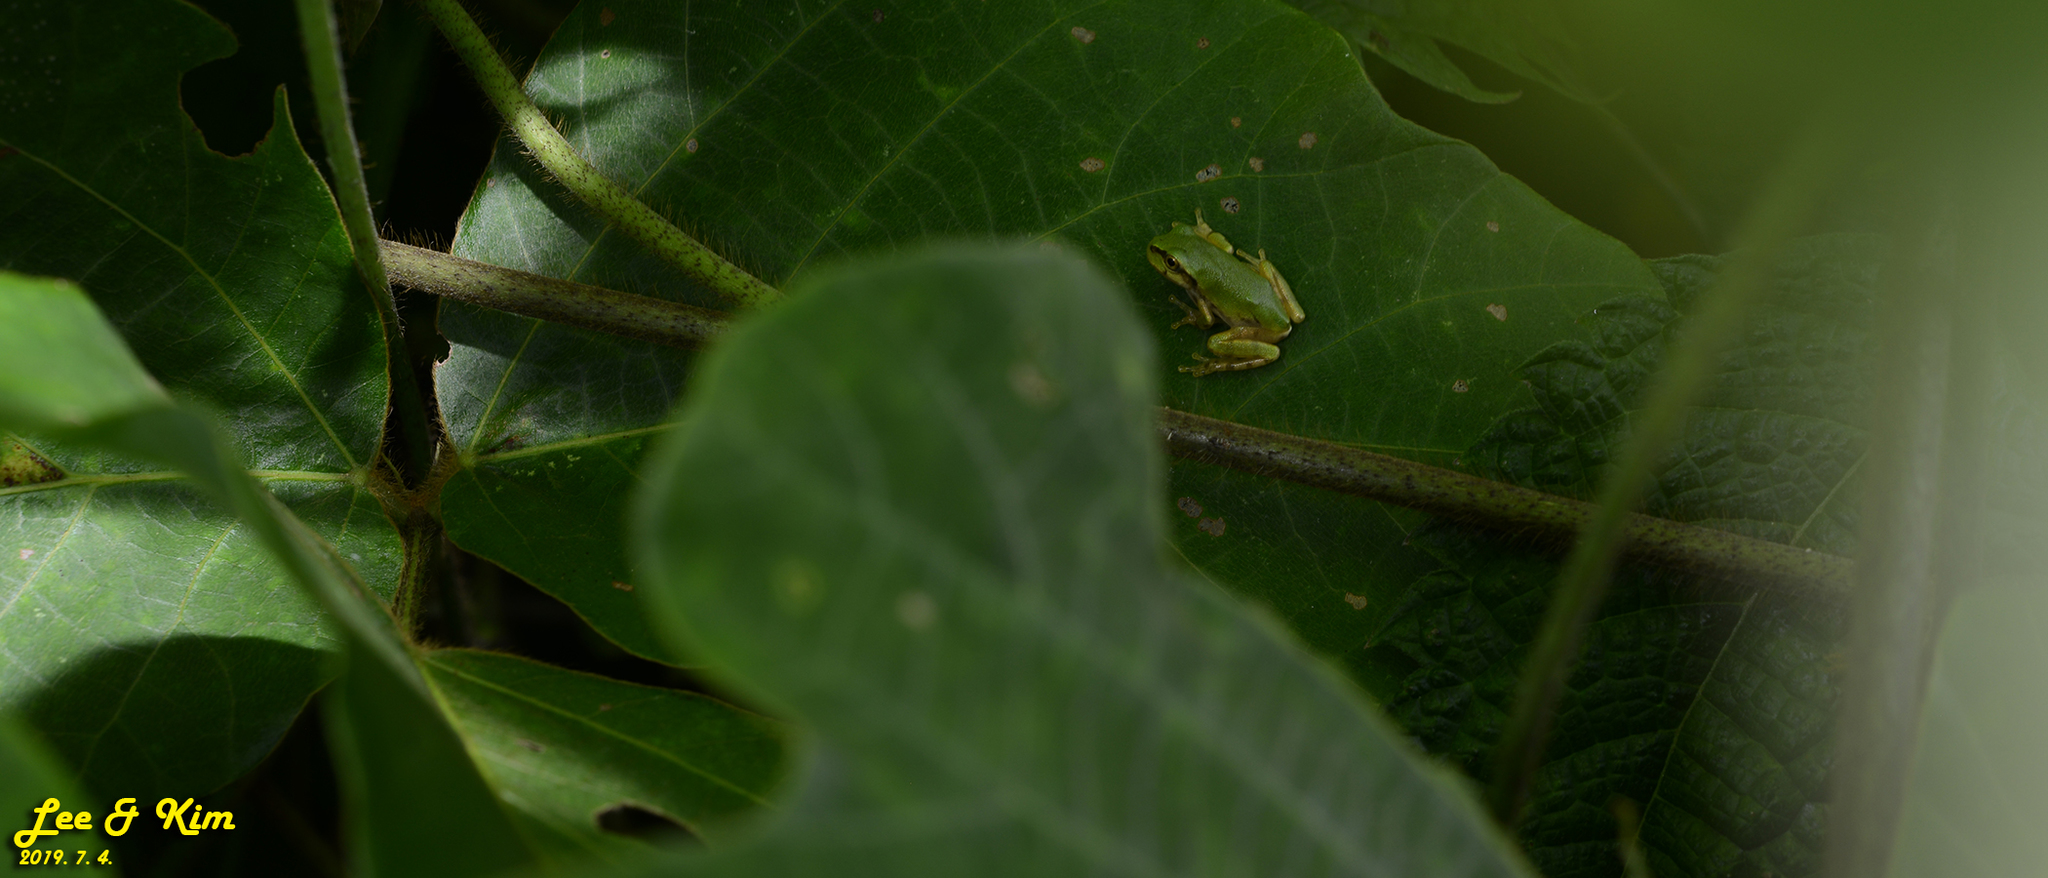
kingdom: Animalia
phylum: Chordata
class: Amphibia
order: Anura
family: Hylidae
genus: Dryophytes
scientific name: Dryophytes japonicus
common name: Japanese treefrog
